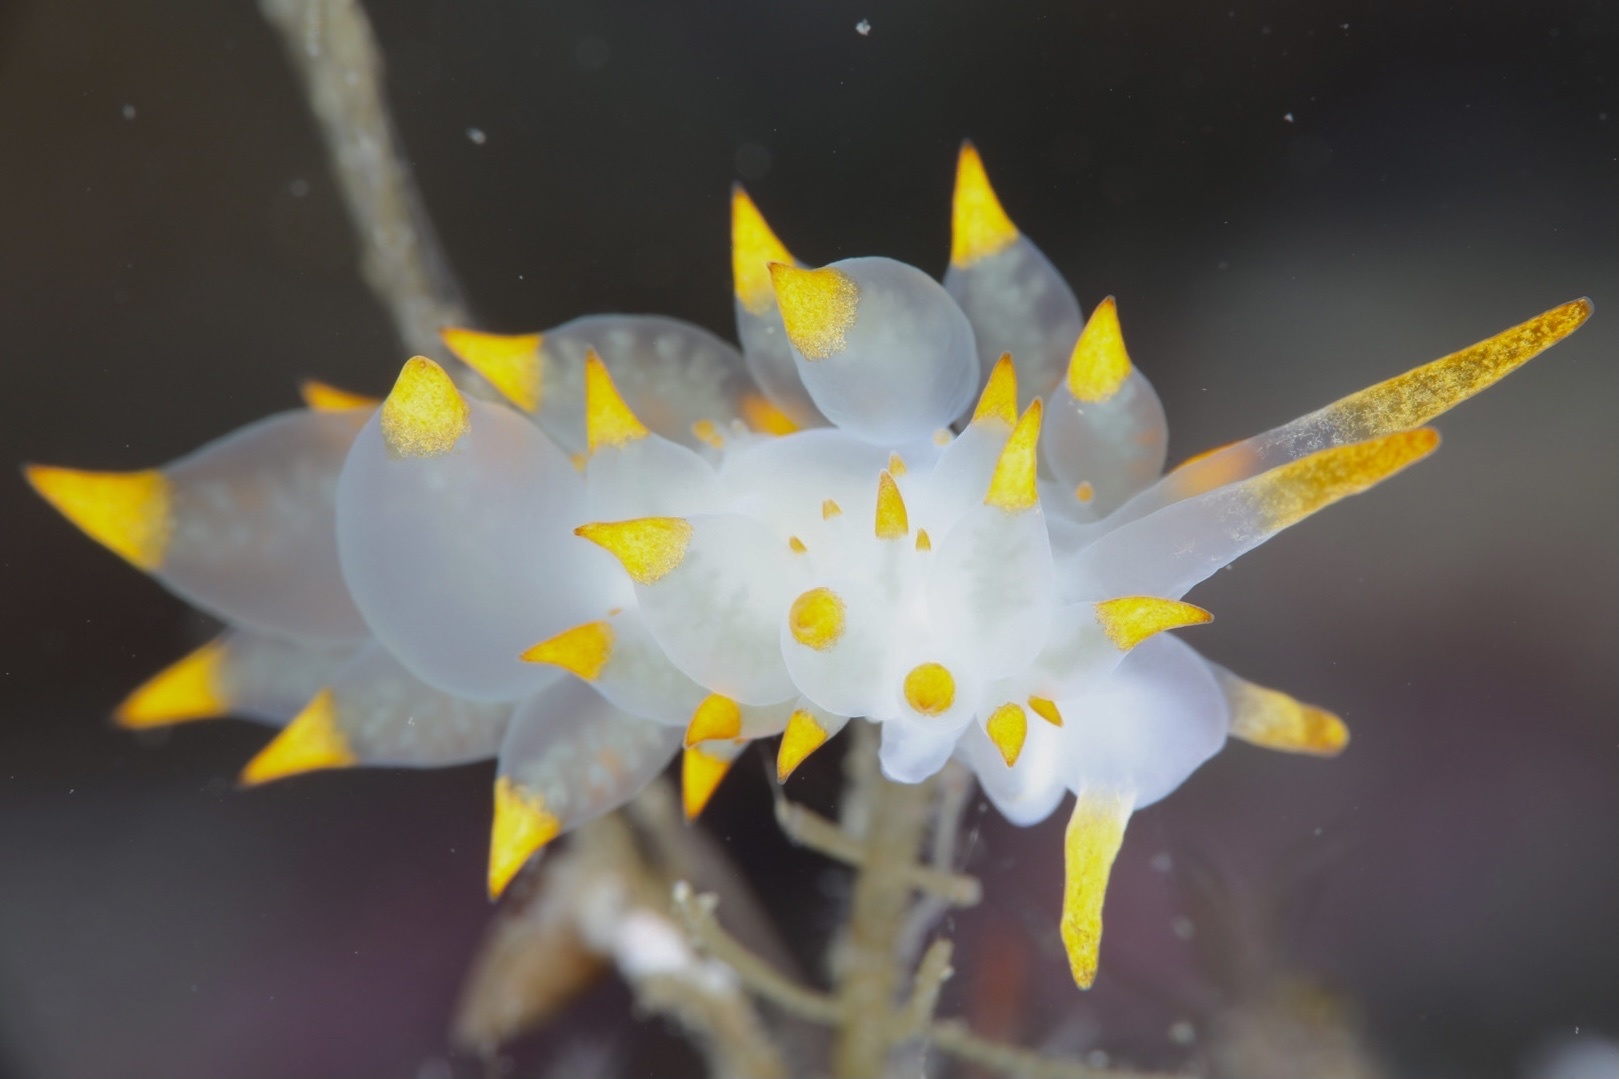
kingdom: Animalia
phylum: Mollusca
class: Gastropoda
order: Nudibranchia
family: Eubranchidae
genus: Amphorina
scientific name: Amphorina farrani
